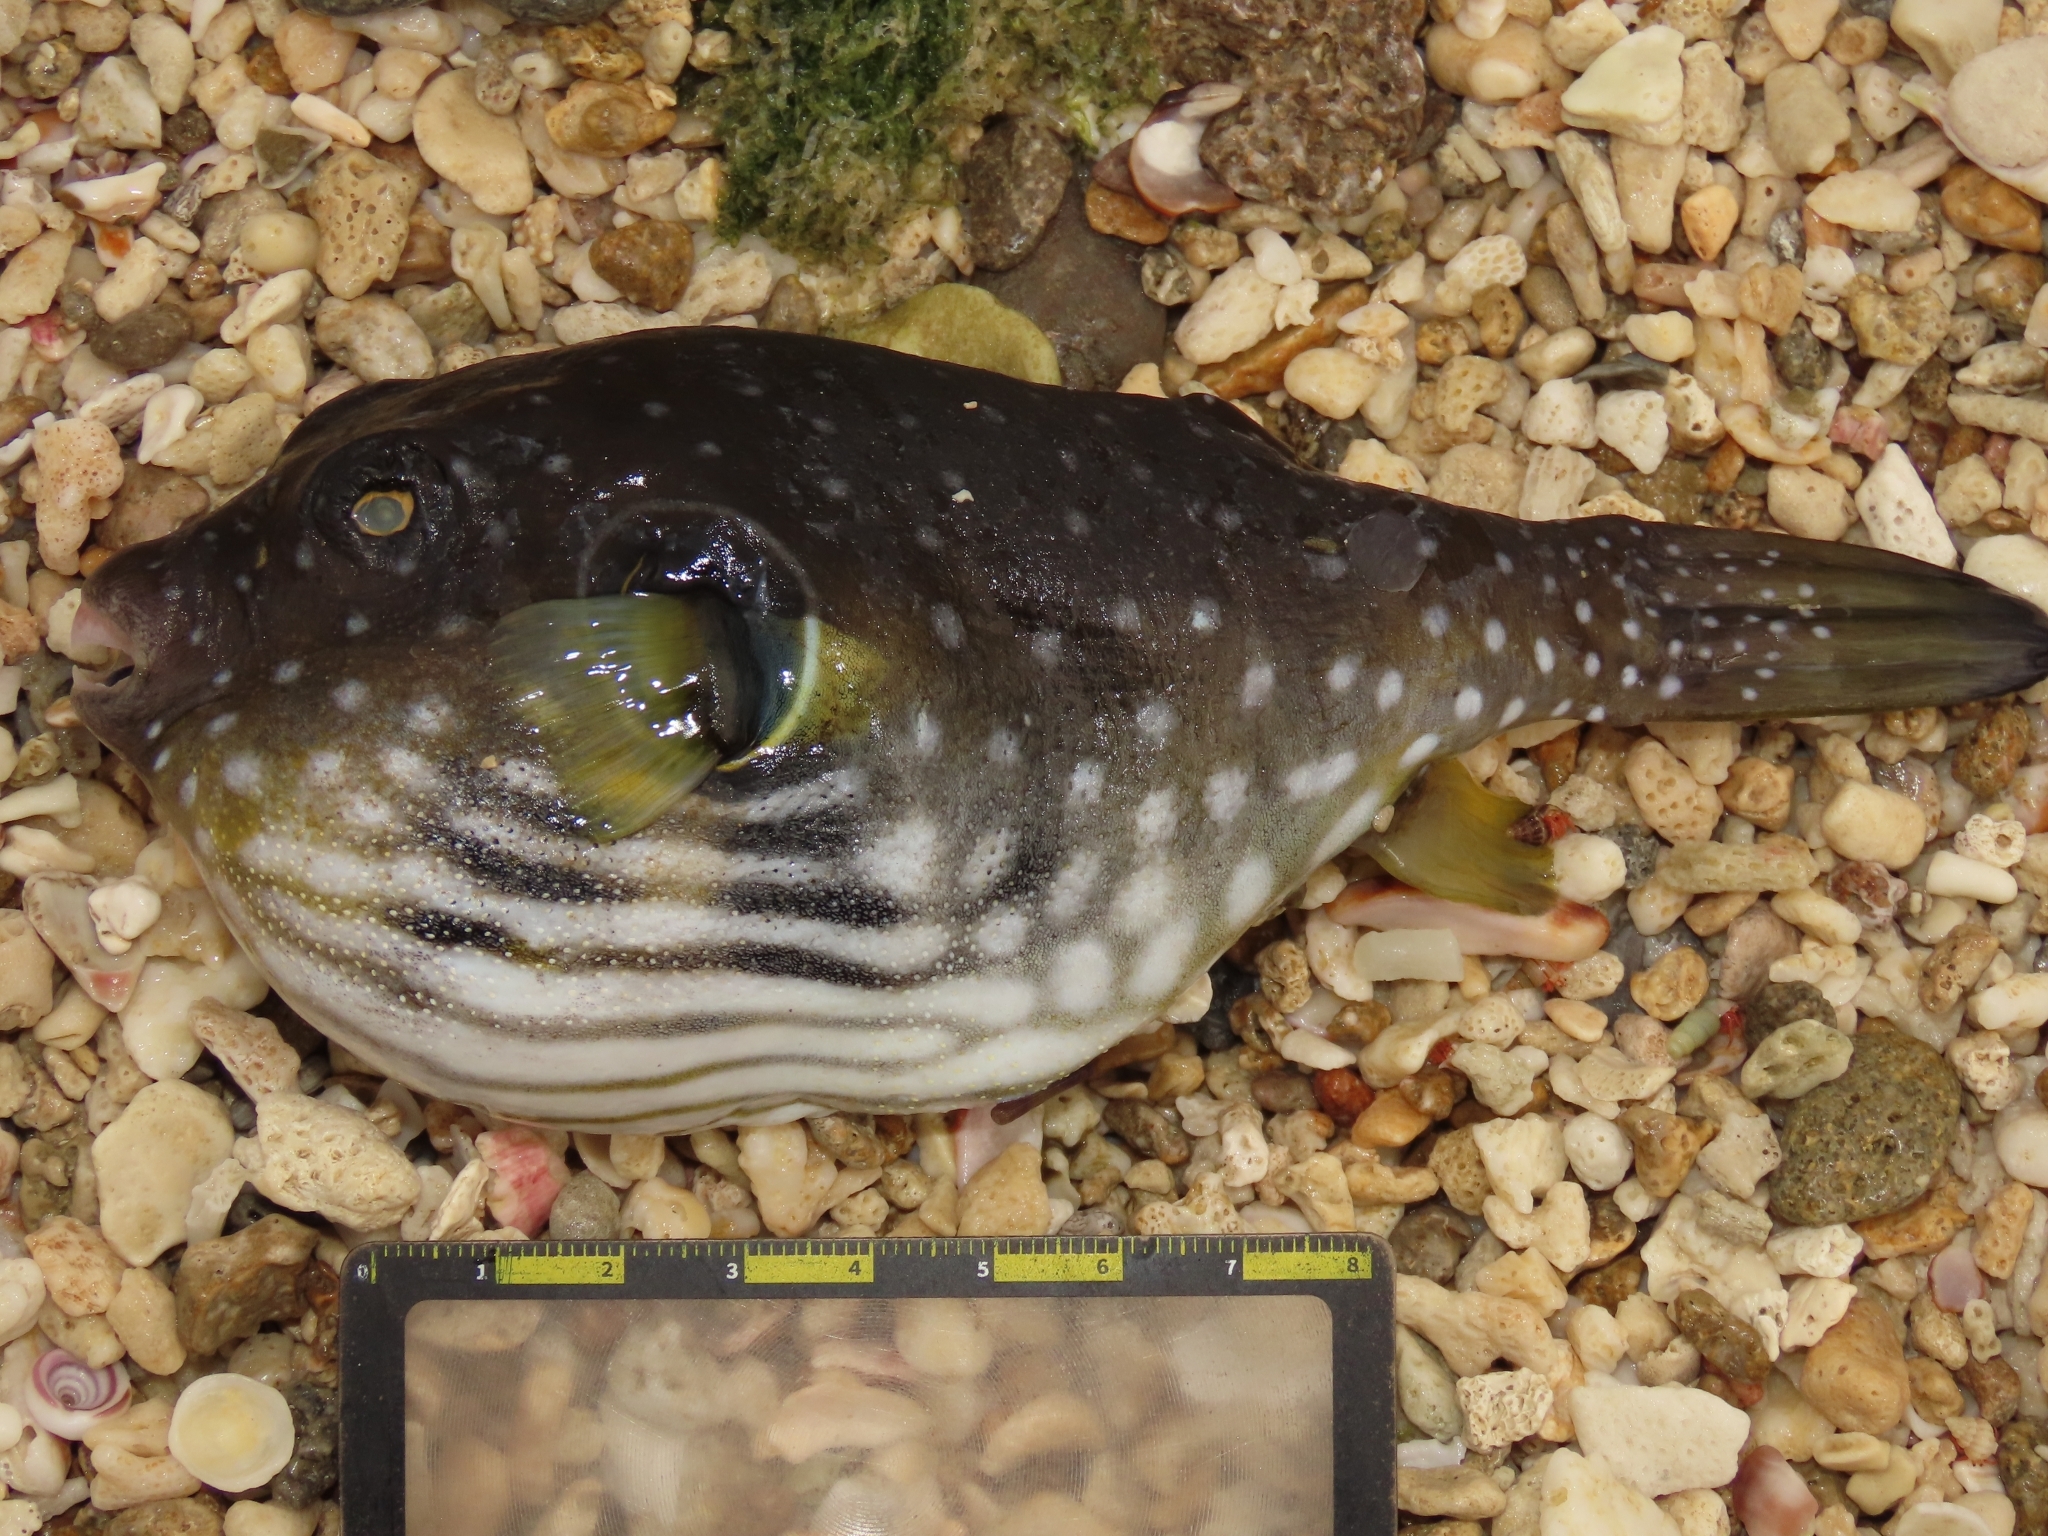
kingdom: Animalia
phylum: Chordata
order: Tetraodontiformes
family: Tetraodontidae
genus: Arothron
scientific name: Arothron hispidus
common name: Stripebelly puffer
